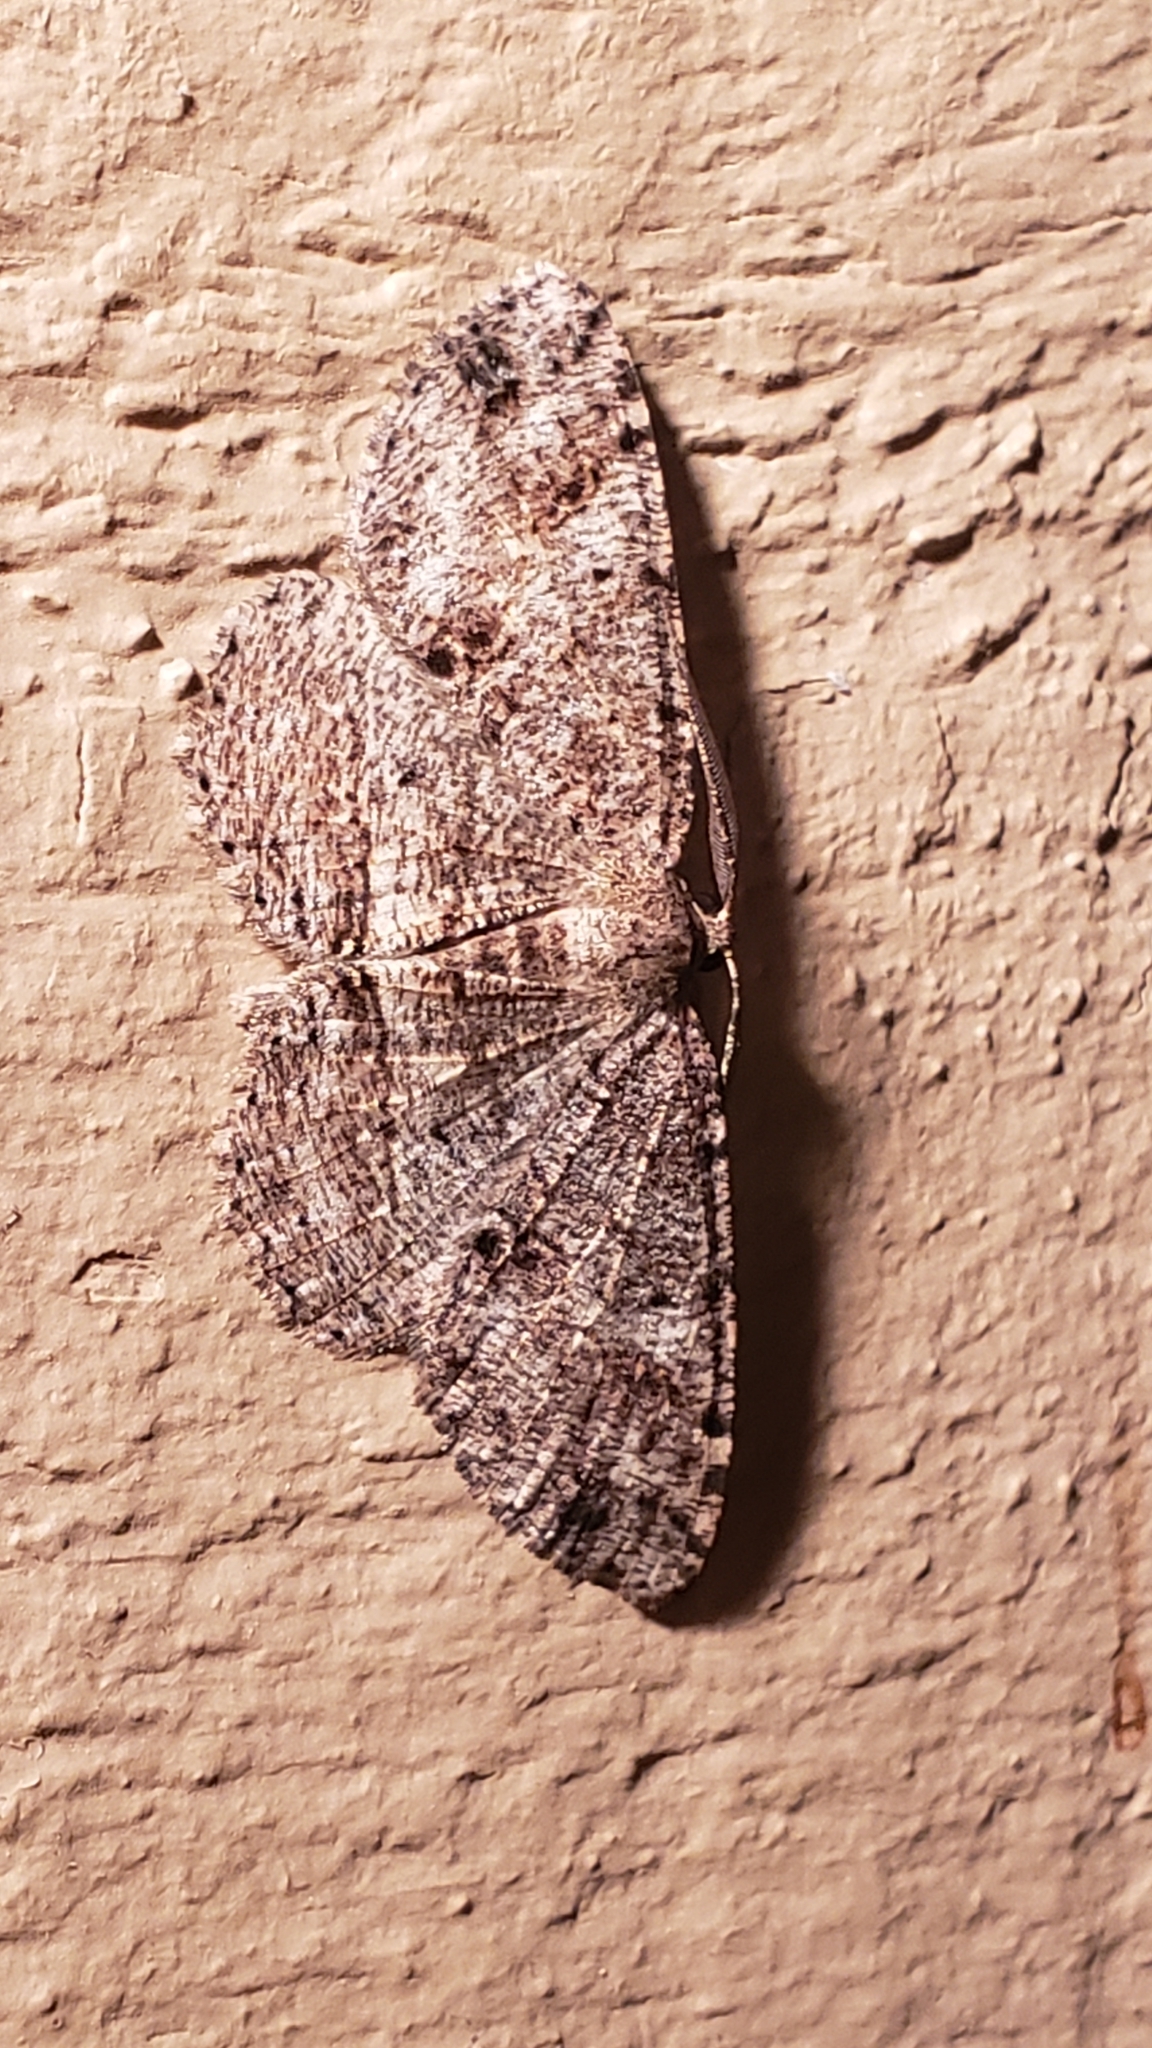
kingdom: Animalia
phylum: Arthropoda
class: Insecta
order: Lepidoptera
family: Geometridae
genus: Melanolophia
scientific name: Melanolophia canadaria
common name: Canadian melanolophia
